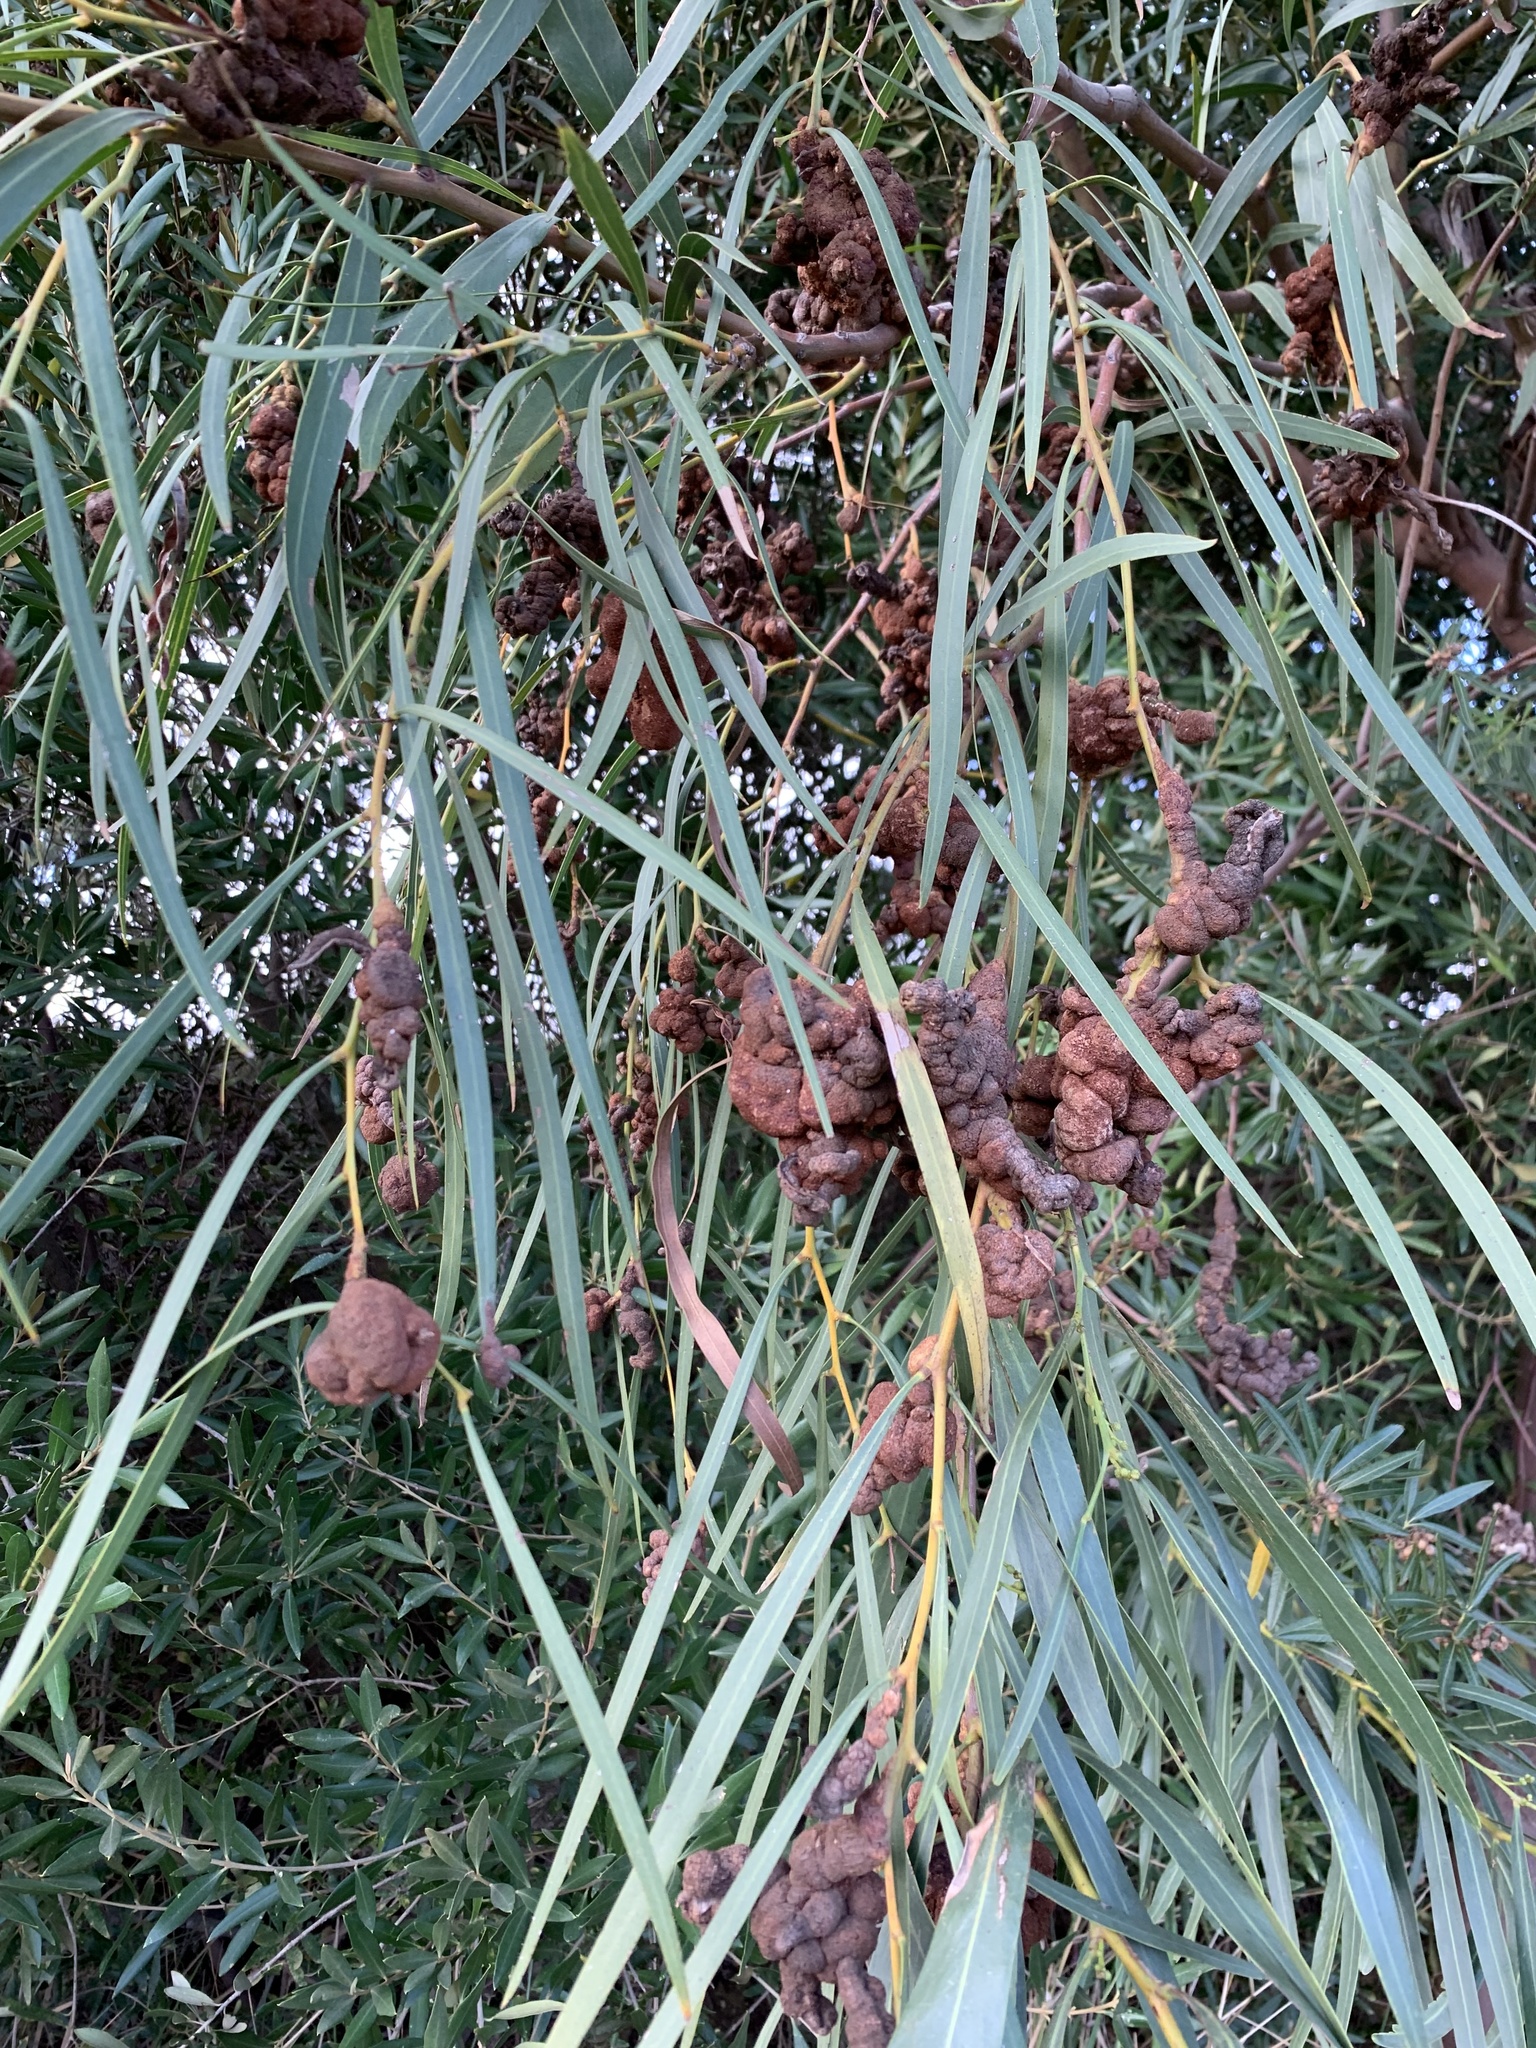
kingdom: Fungi
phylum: Basidiomycota
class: Pucciniomycetes
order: Pucciniales
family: Uromycladiaceae
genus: Uromycladium
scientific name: Uromycladium morrisii
